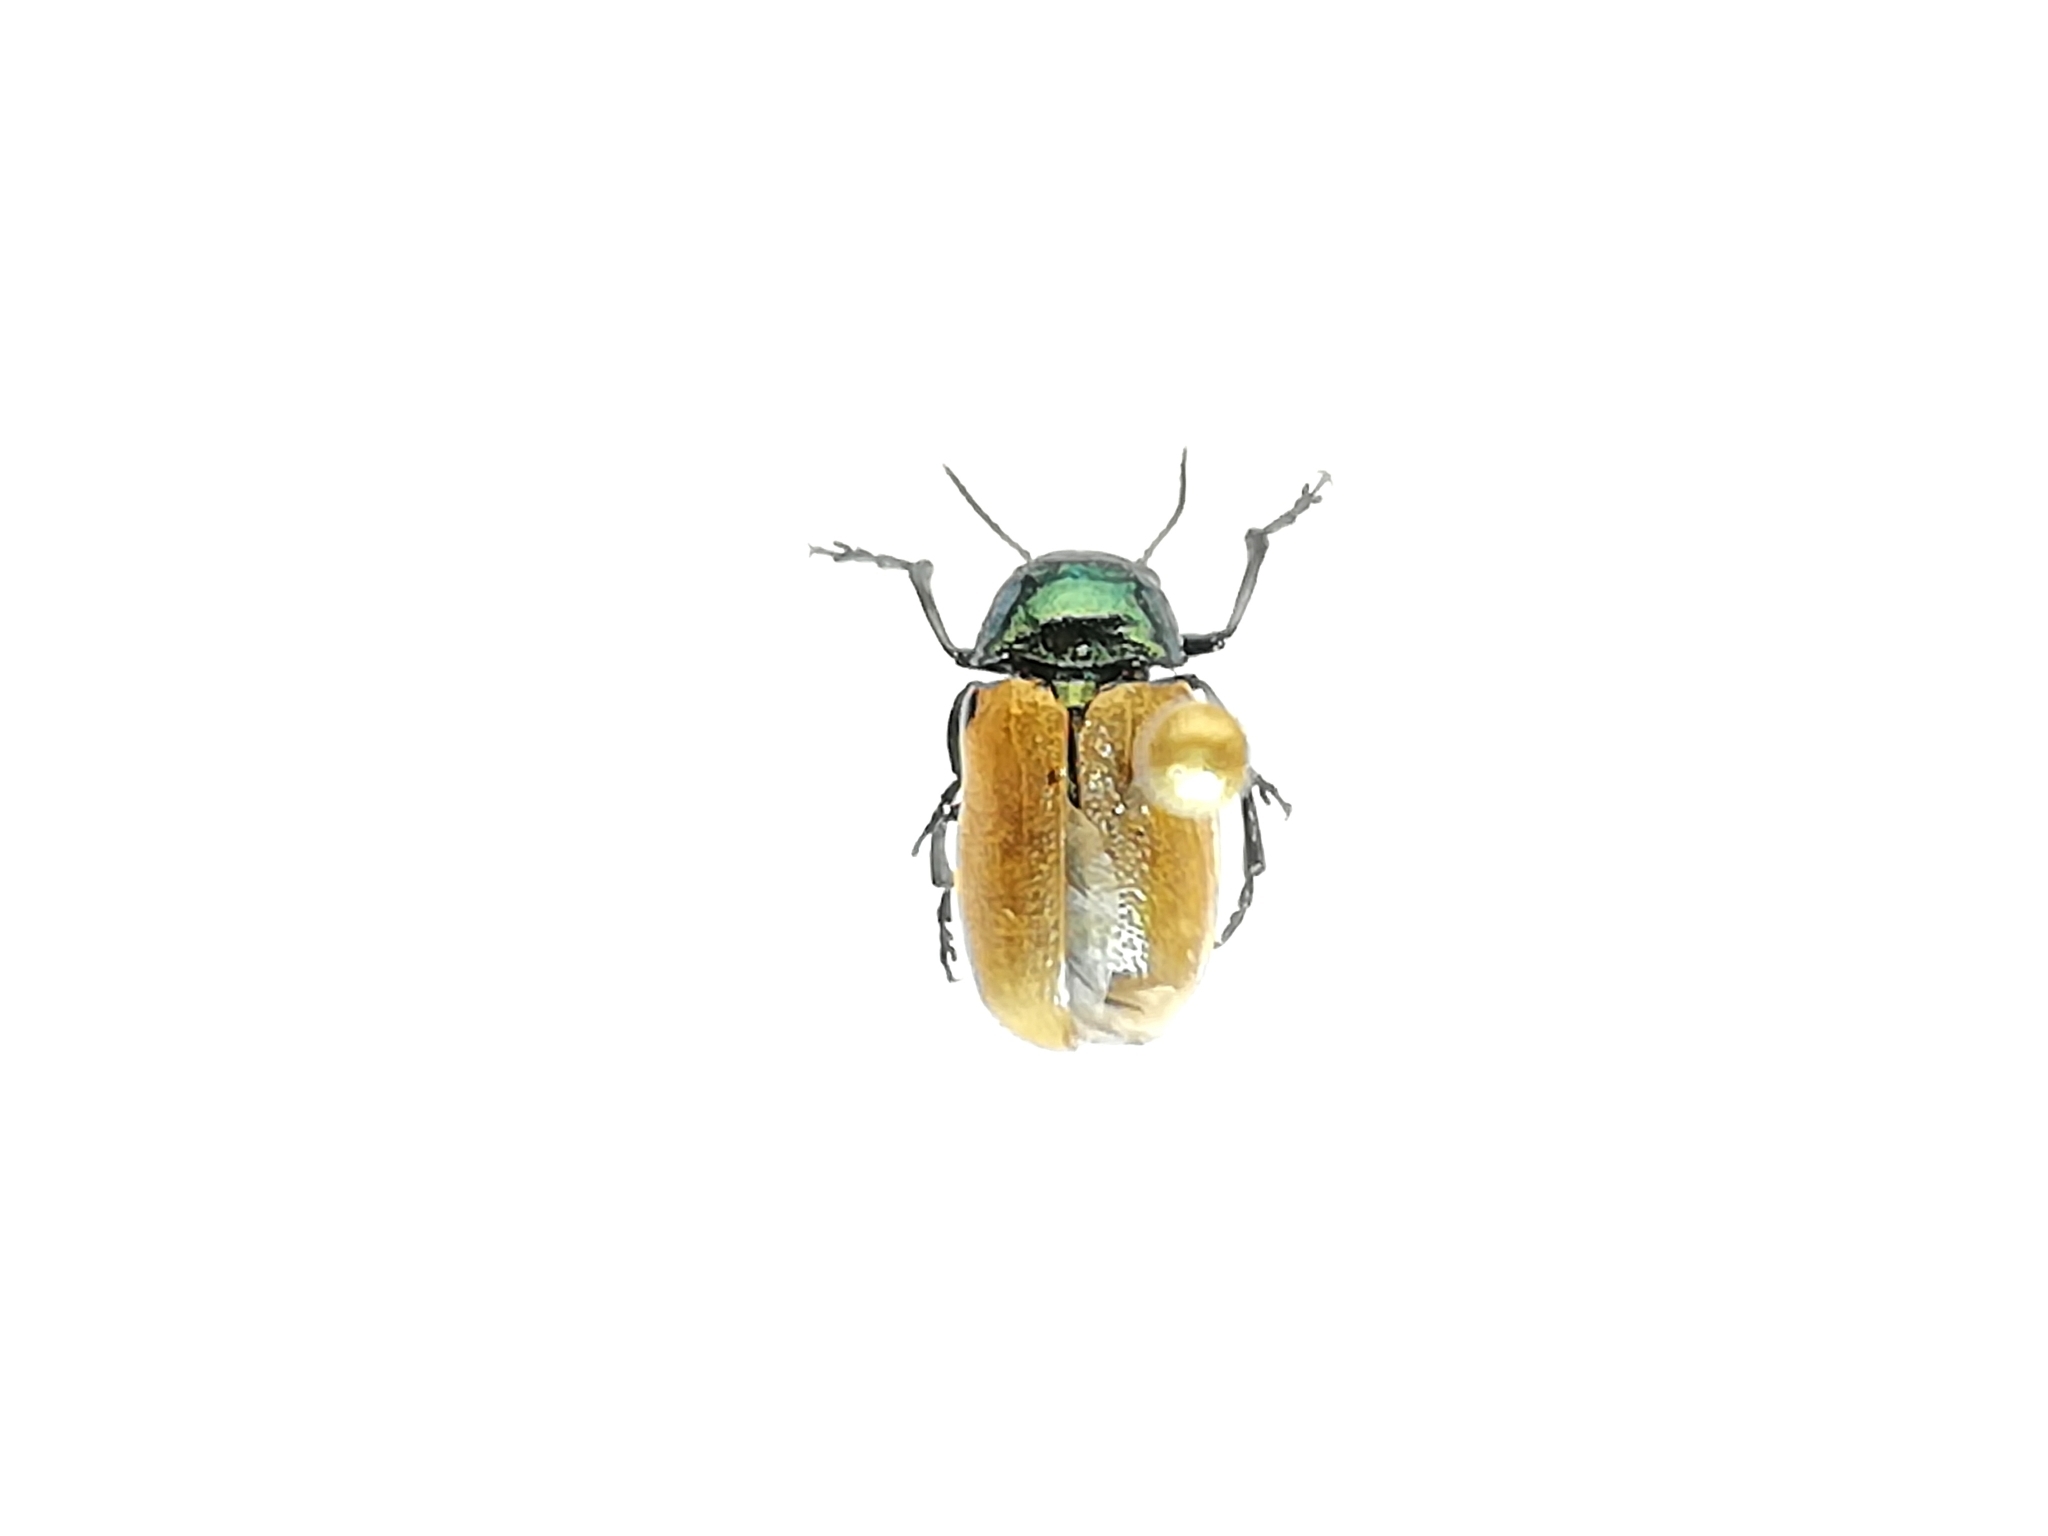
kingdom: Animalia
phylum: Arthropoda
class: Insecta
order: Coleoptera
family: Chrysomelidae
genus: Labidostomis
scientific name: Labidostomis longimana
